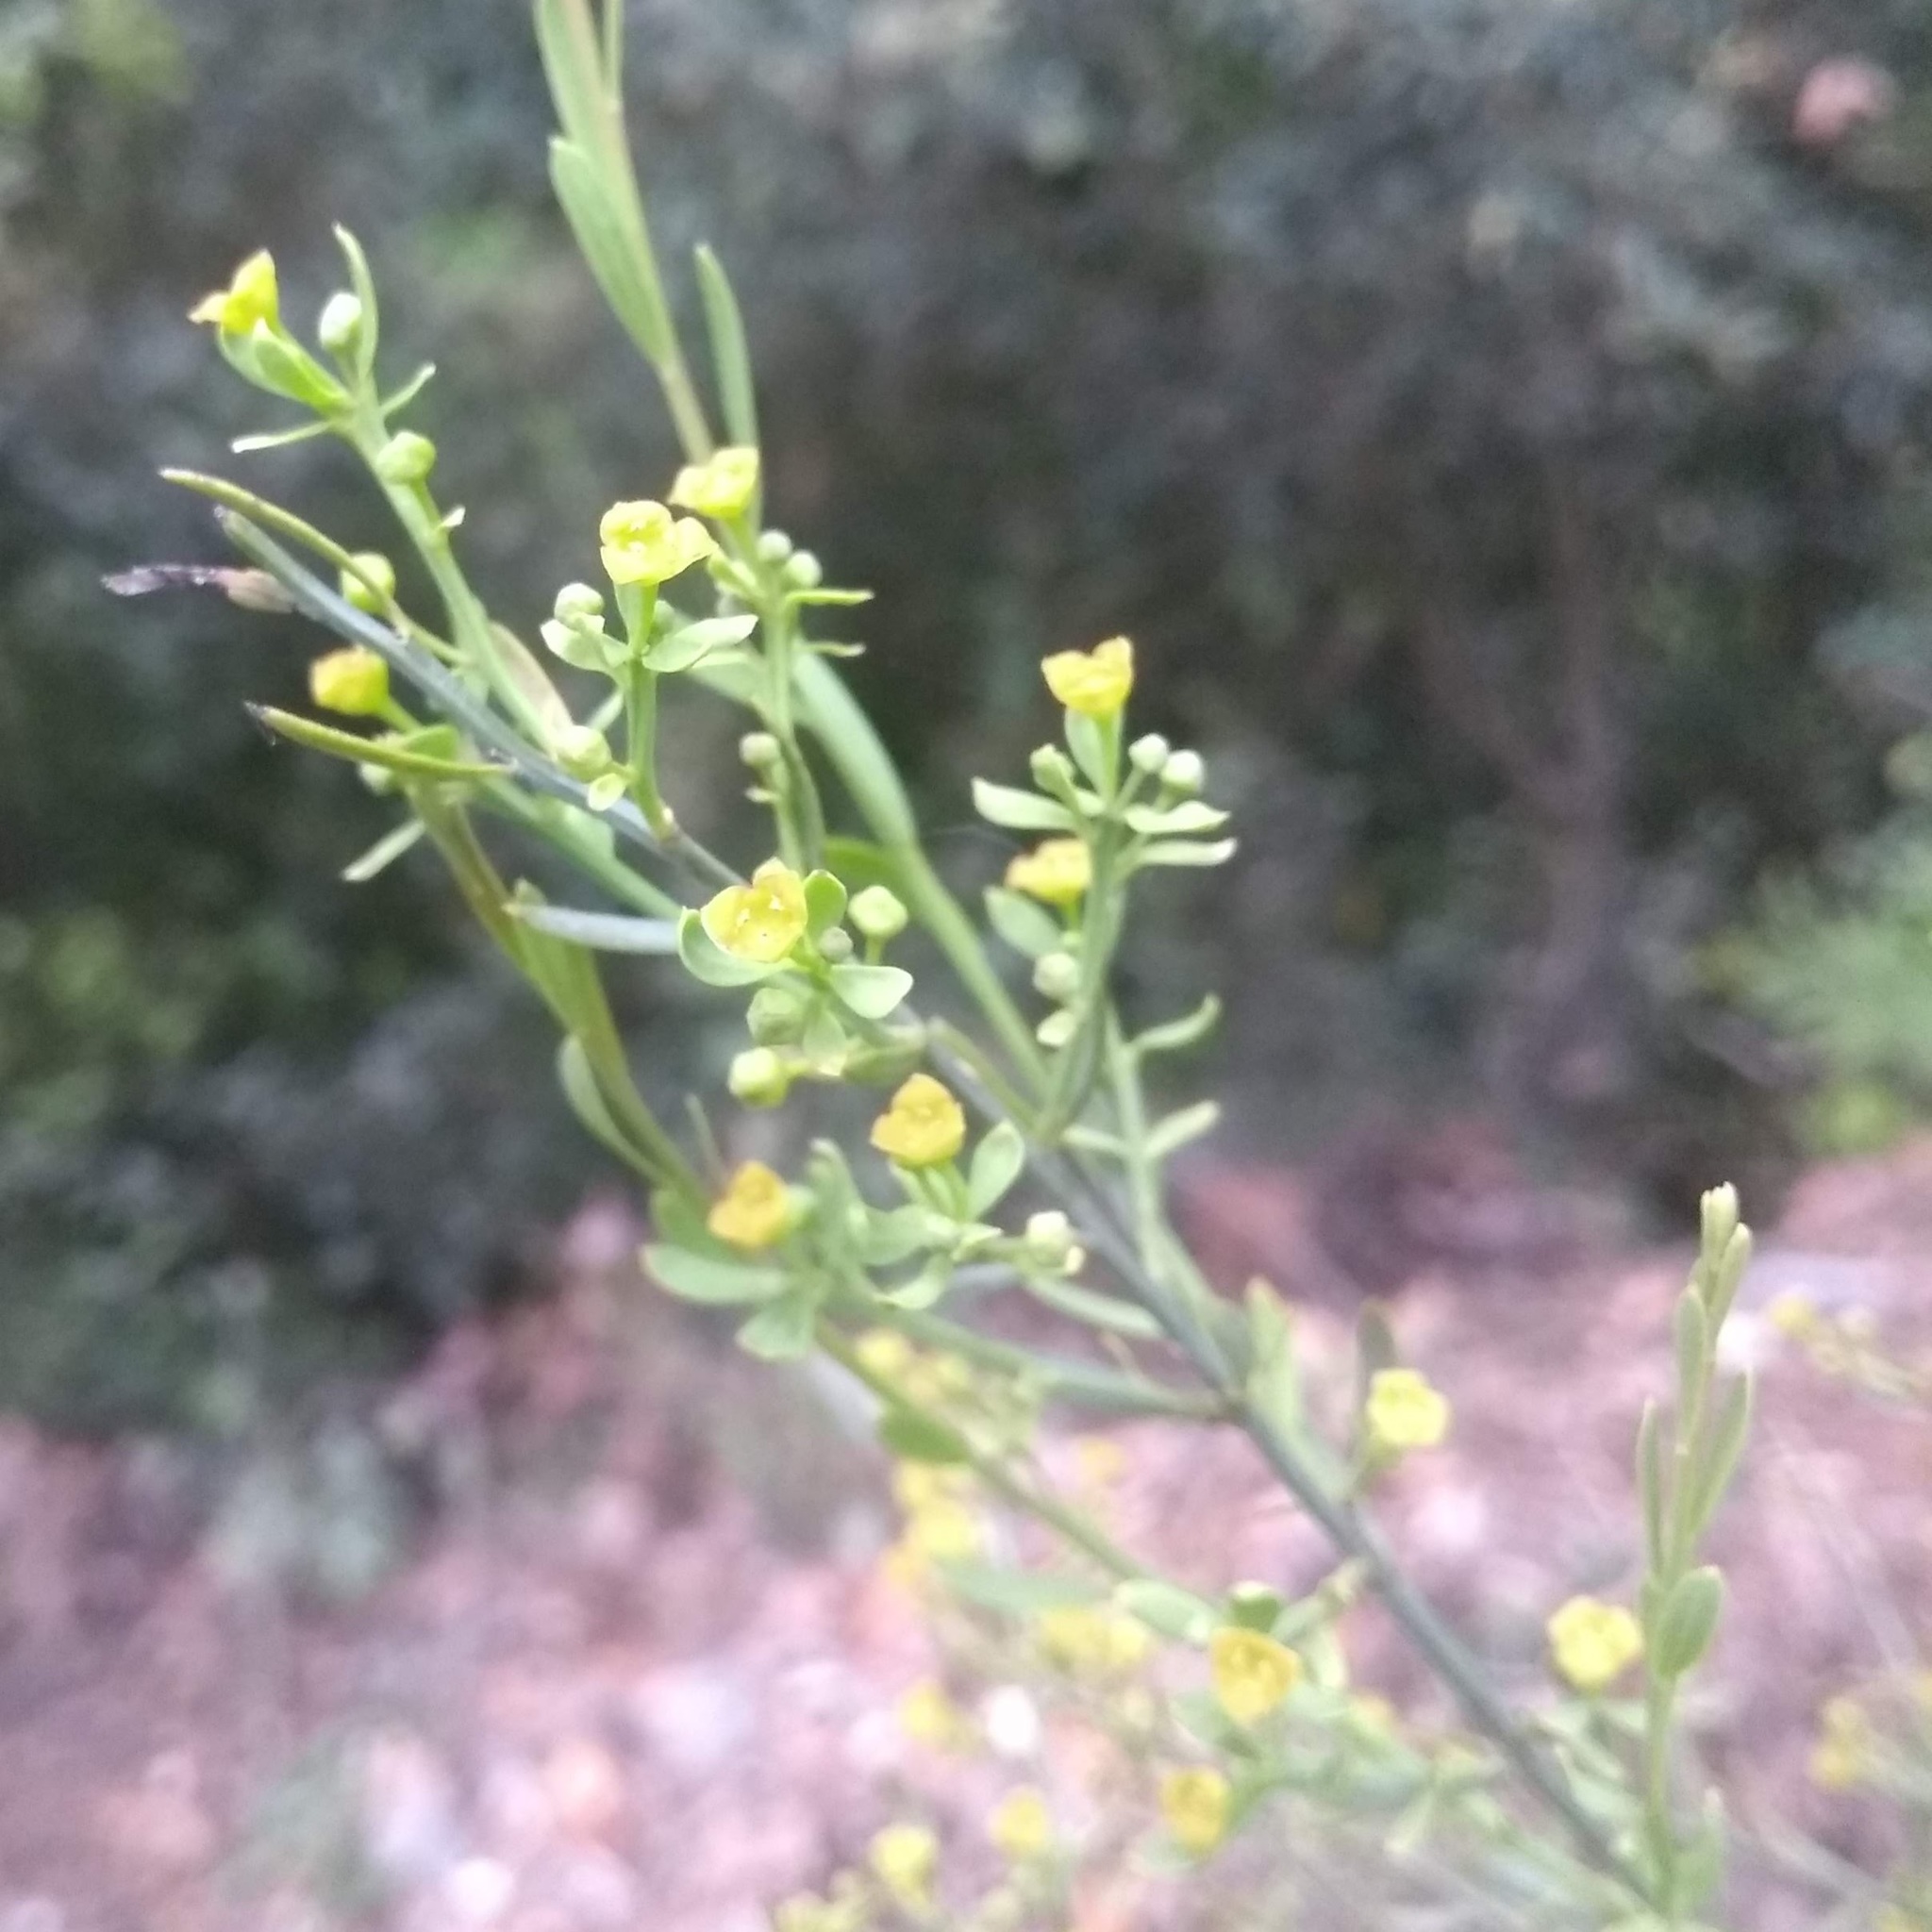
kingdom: Plantae
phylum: Tracheophyta
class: Magnoliopsida
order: Santalales
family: Santalaceae
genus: Osyris
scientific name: Osyris alba
